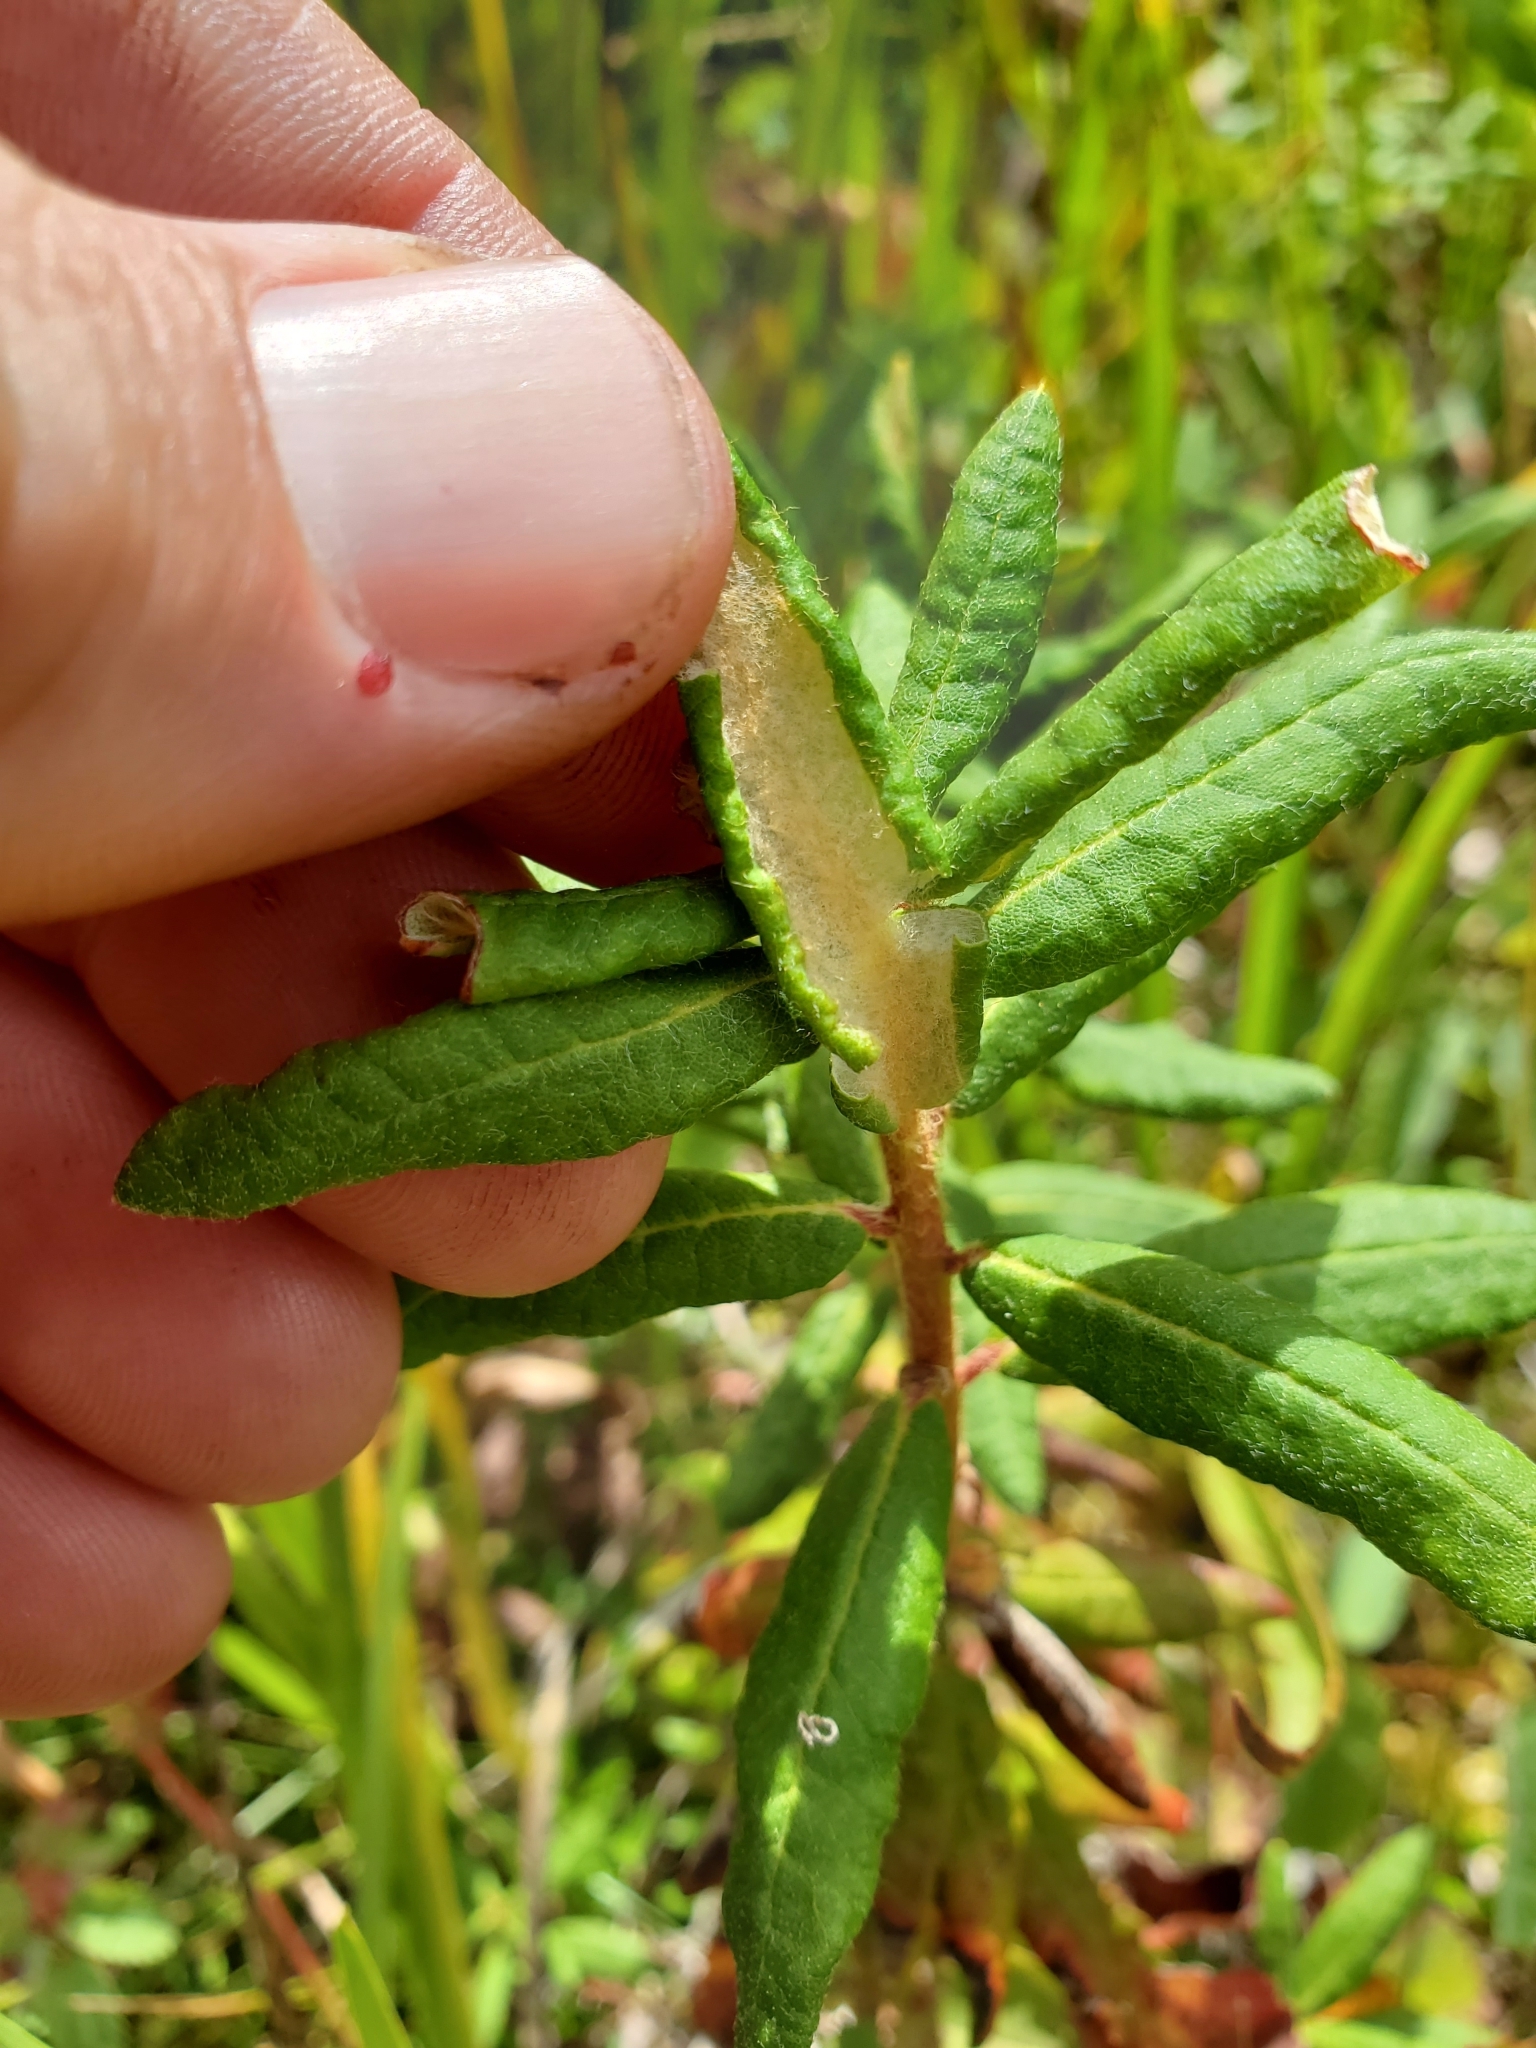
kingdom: Plantae
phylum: Tracheophyta
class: Magnoliopsida
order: Ericales
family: Ericaceae
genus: Rhododendron
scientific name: Rhododendron groenlandicum
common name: Bog labrador tea
